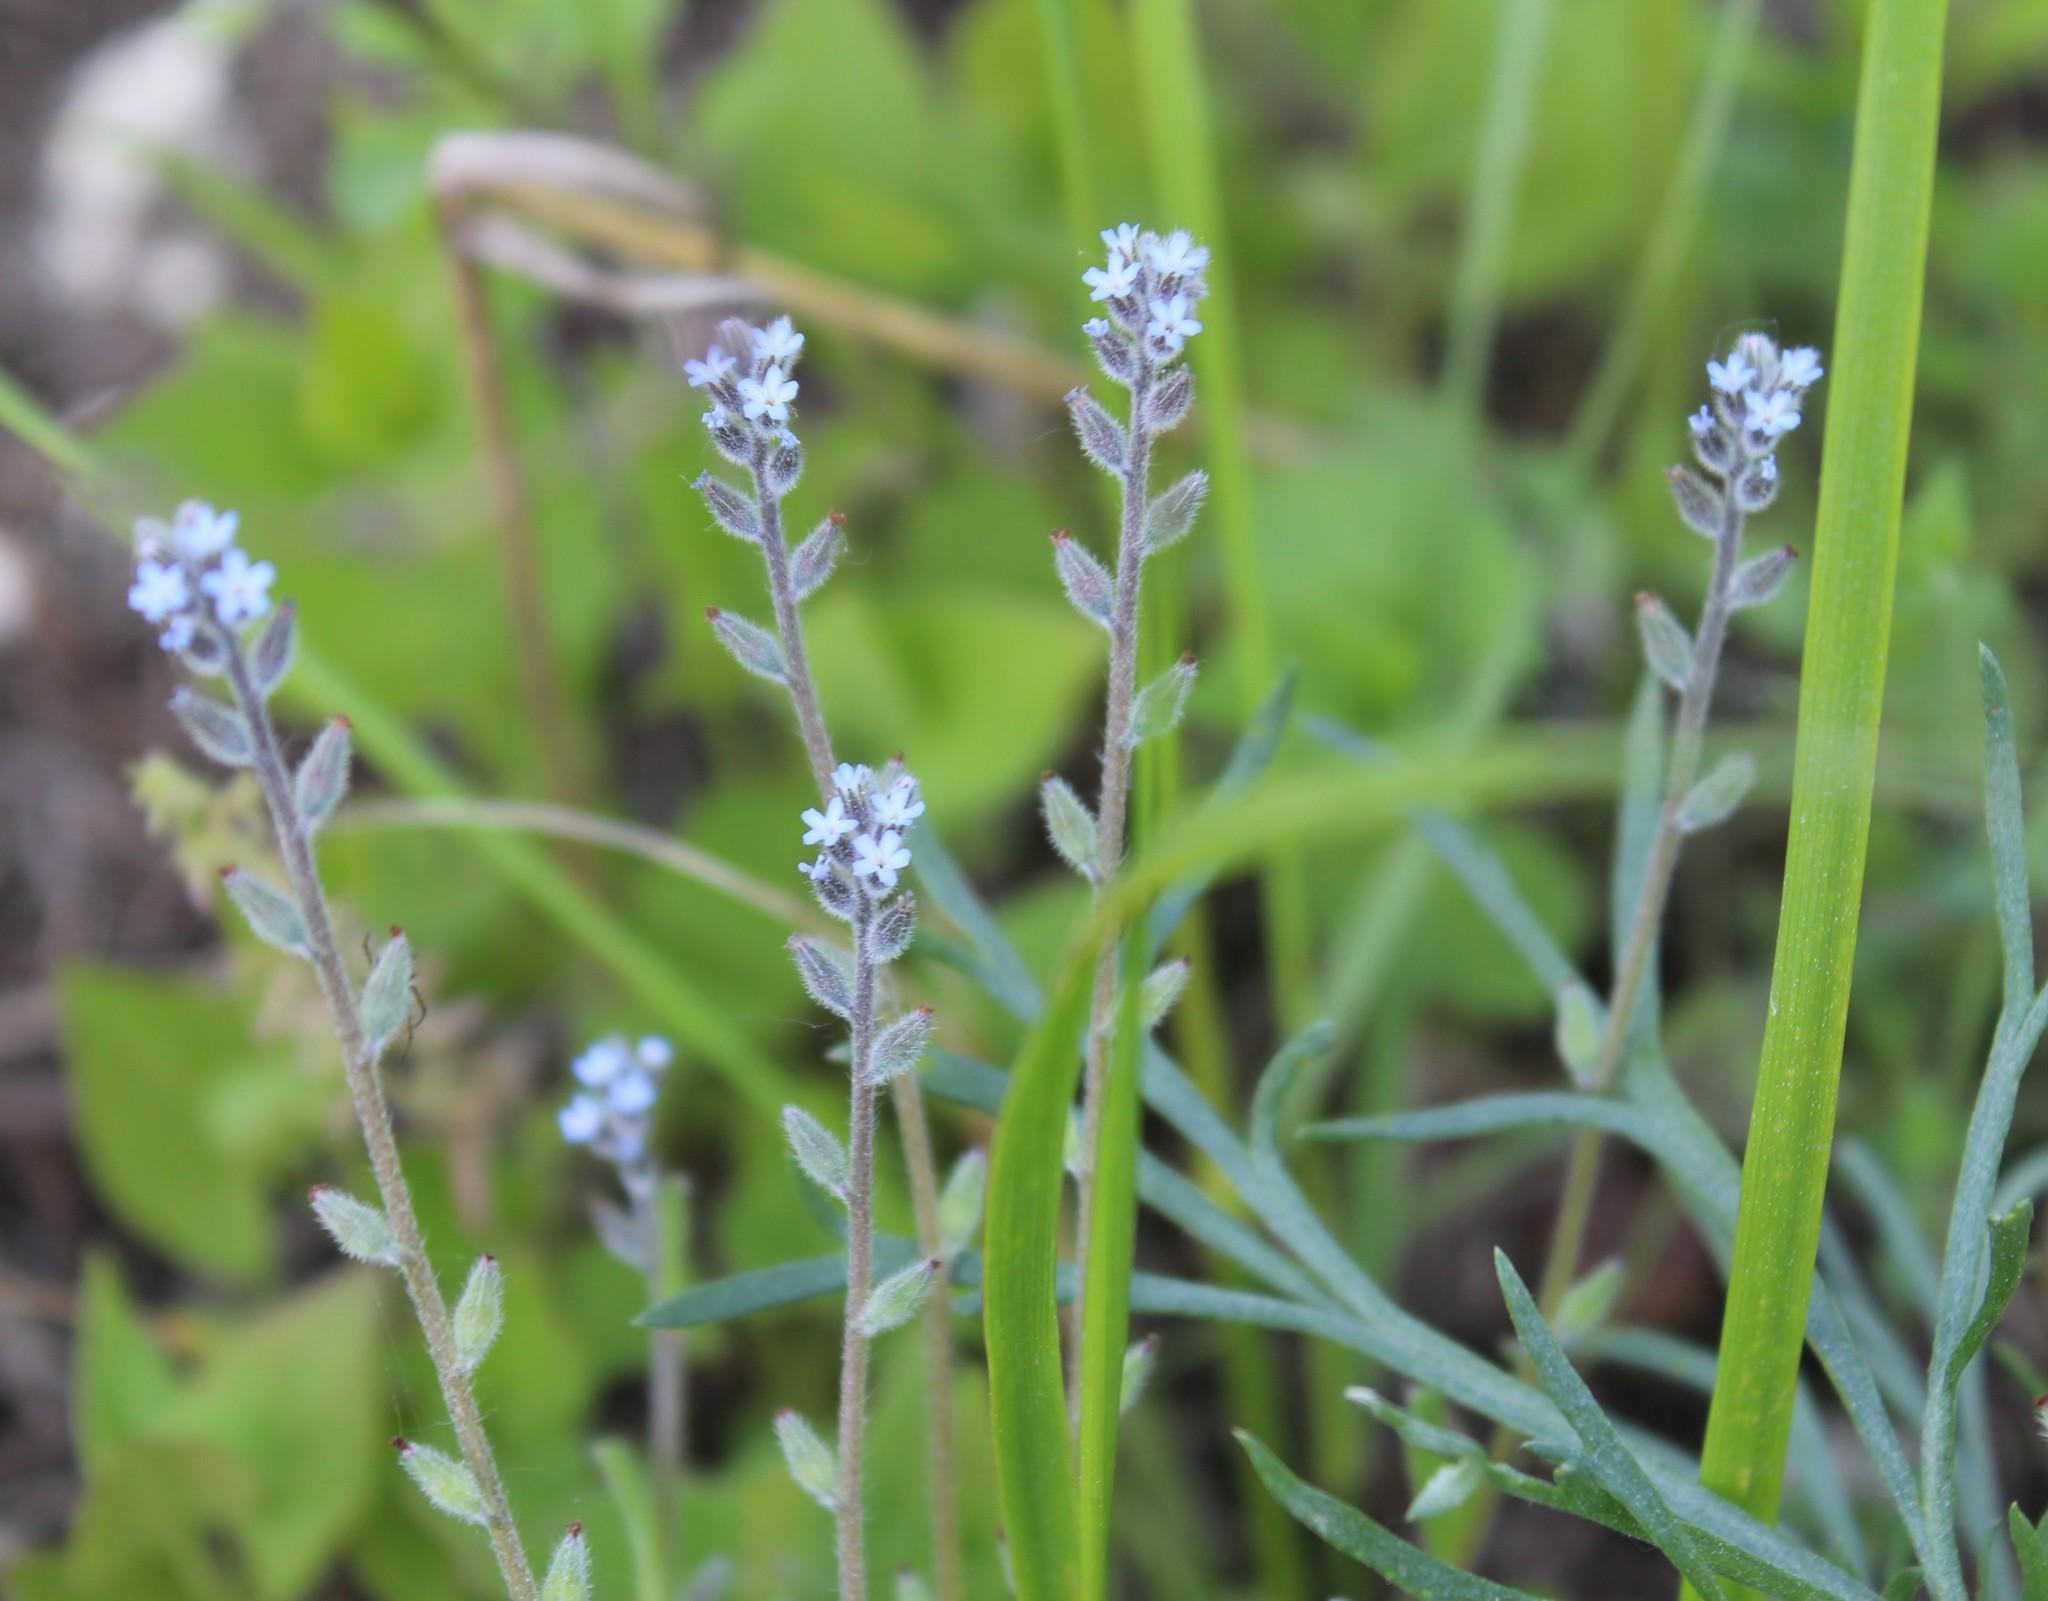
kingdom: Plantae
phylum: Tracheophyta
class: Magnoliopsida
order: Boraginales
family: Boraginaceae
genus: Myosotis
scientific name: Myosotis stricta
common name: Strict forget-me-not
